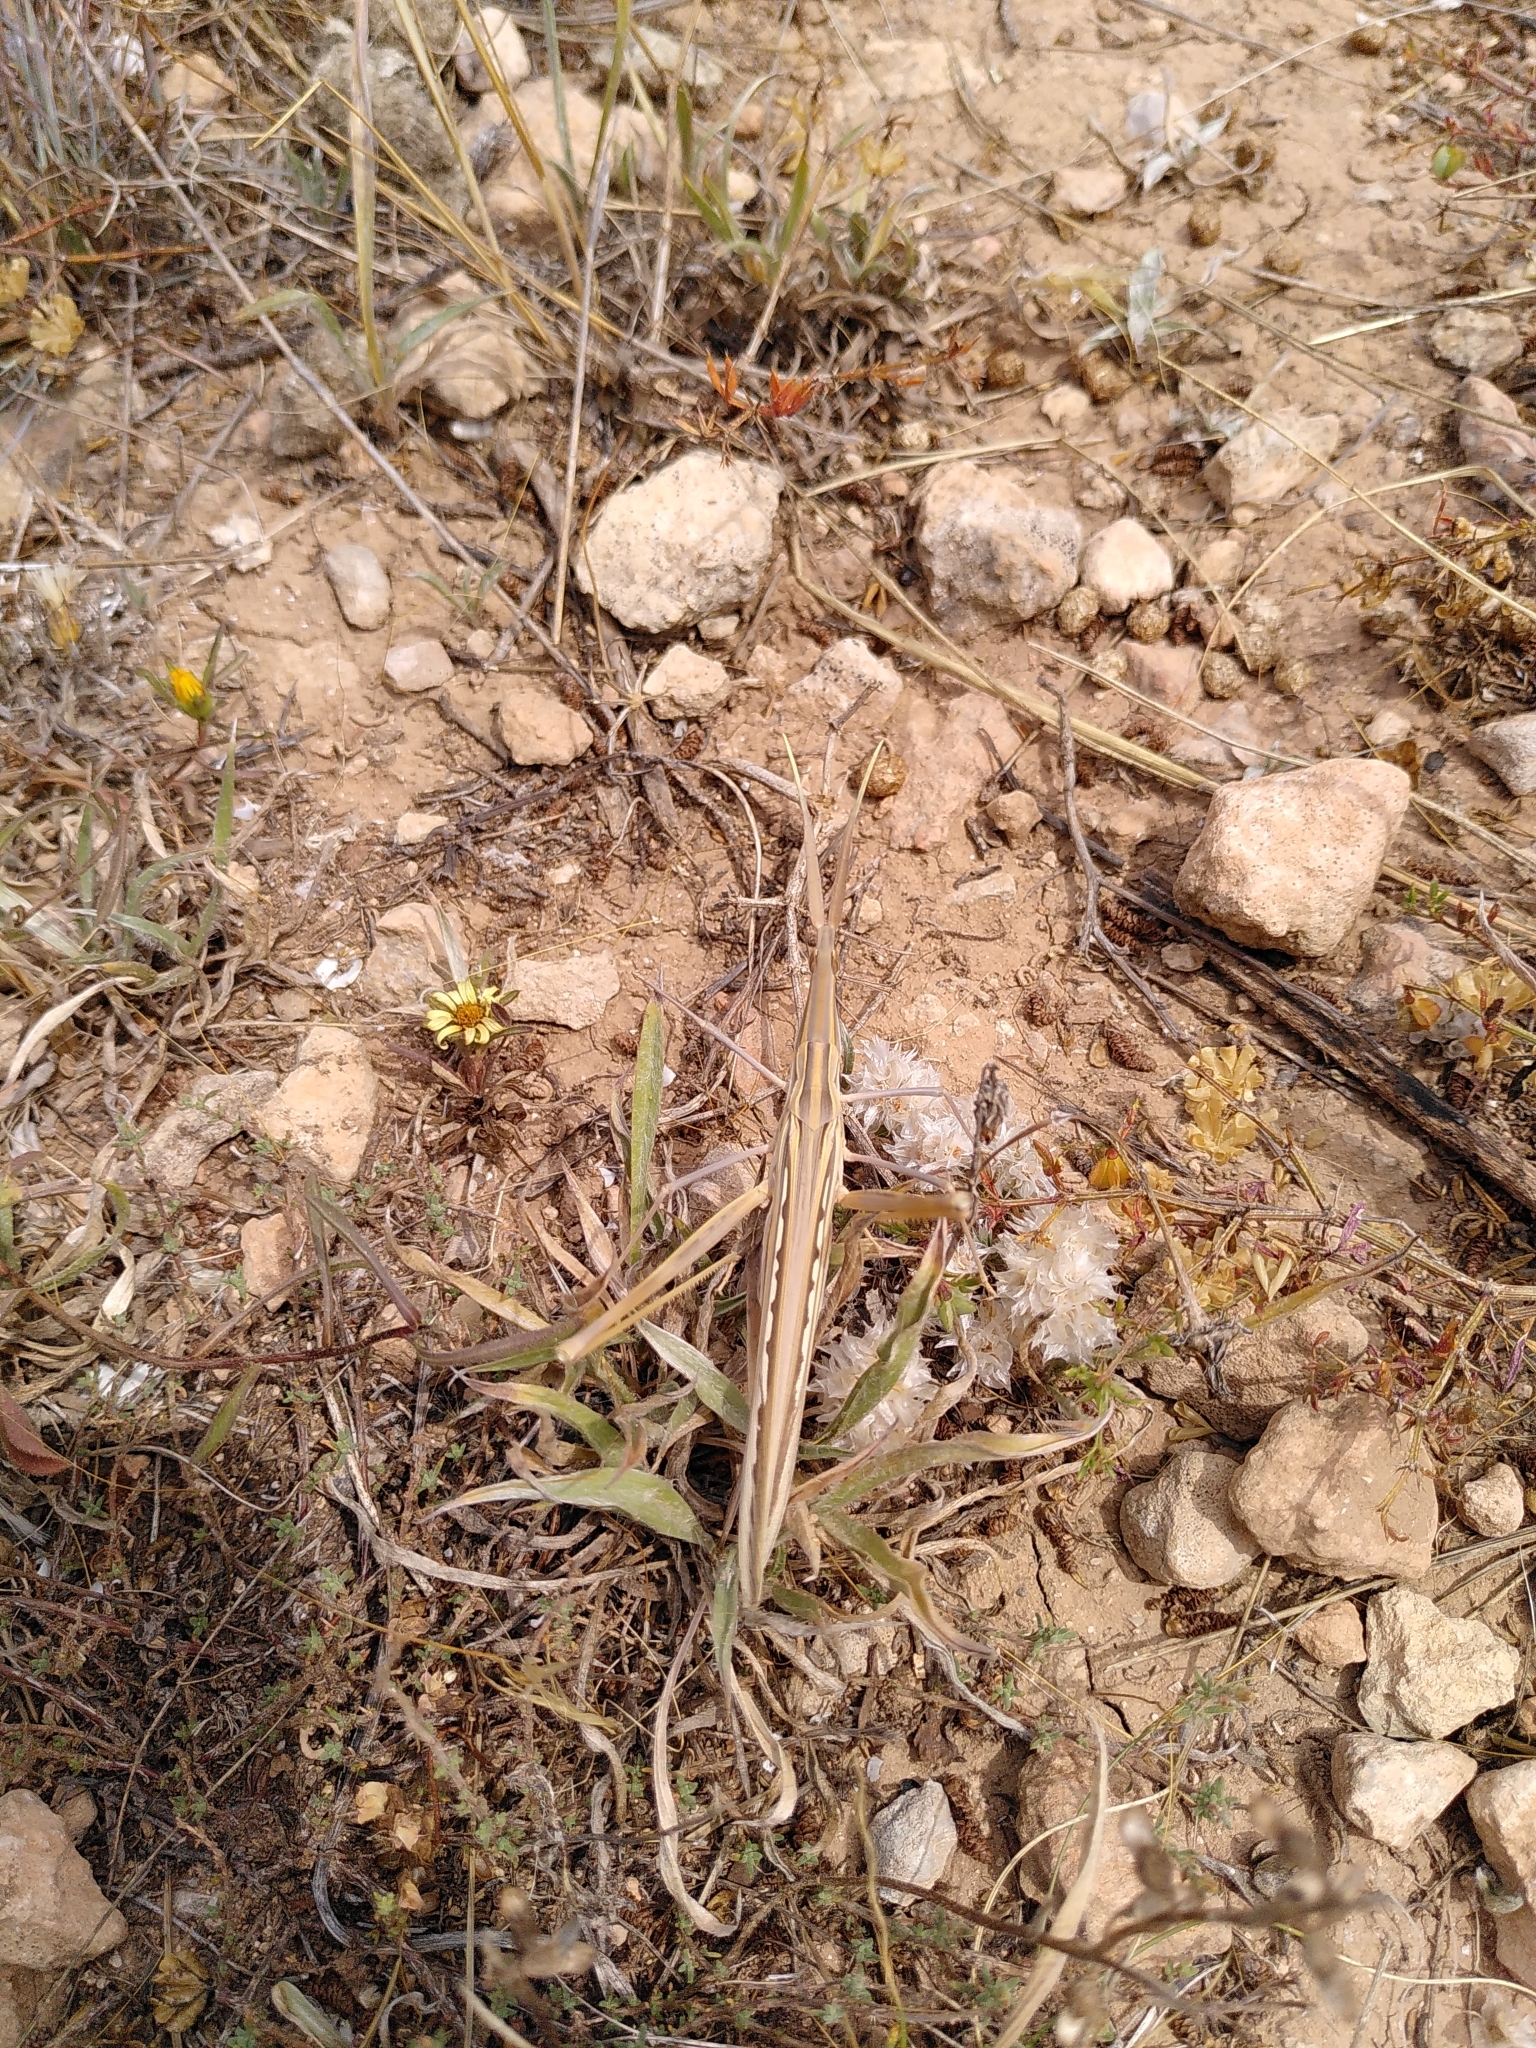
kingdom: Animalia
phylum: Arthropoda
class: Insecta
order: Orthoptera
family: Acrididae
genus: Truxalis
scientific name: Truxalis nasuta
